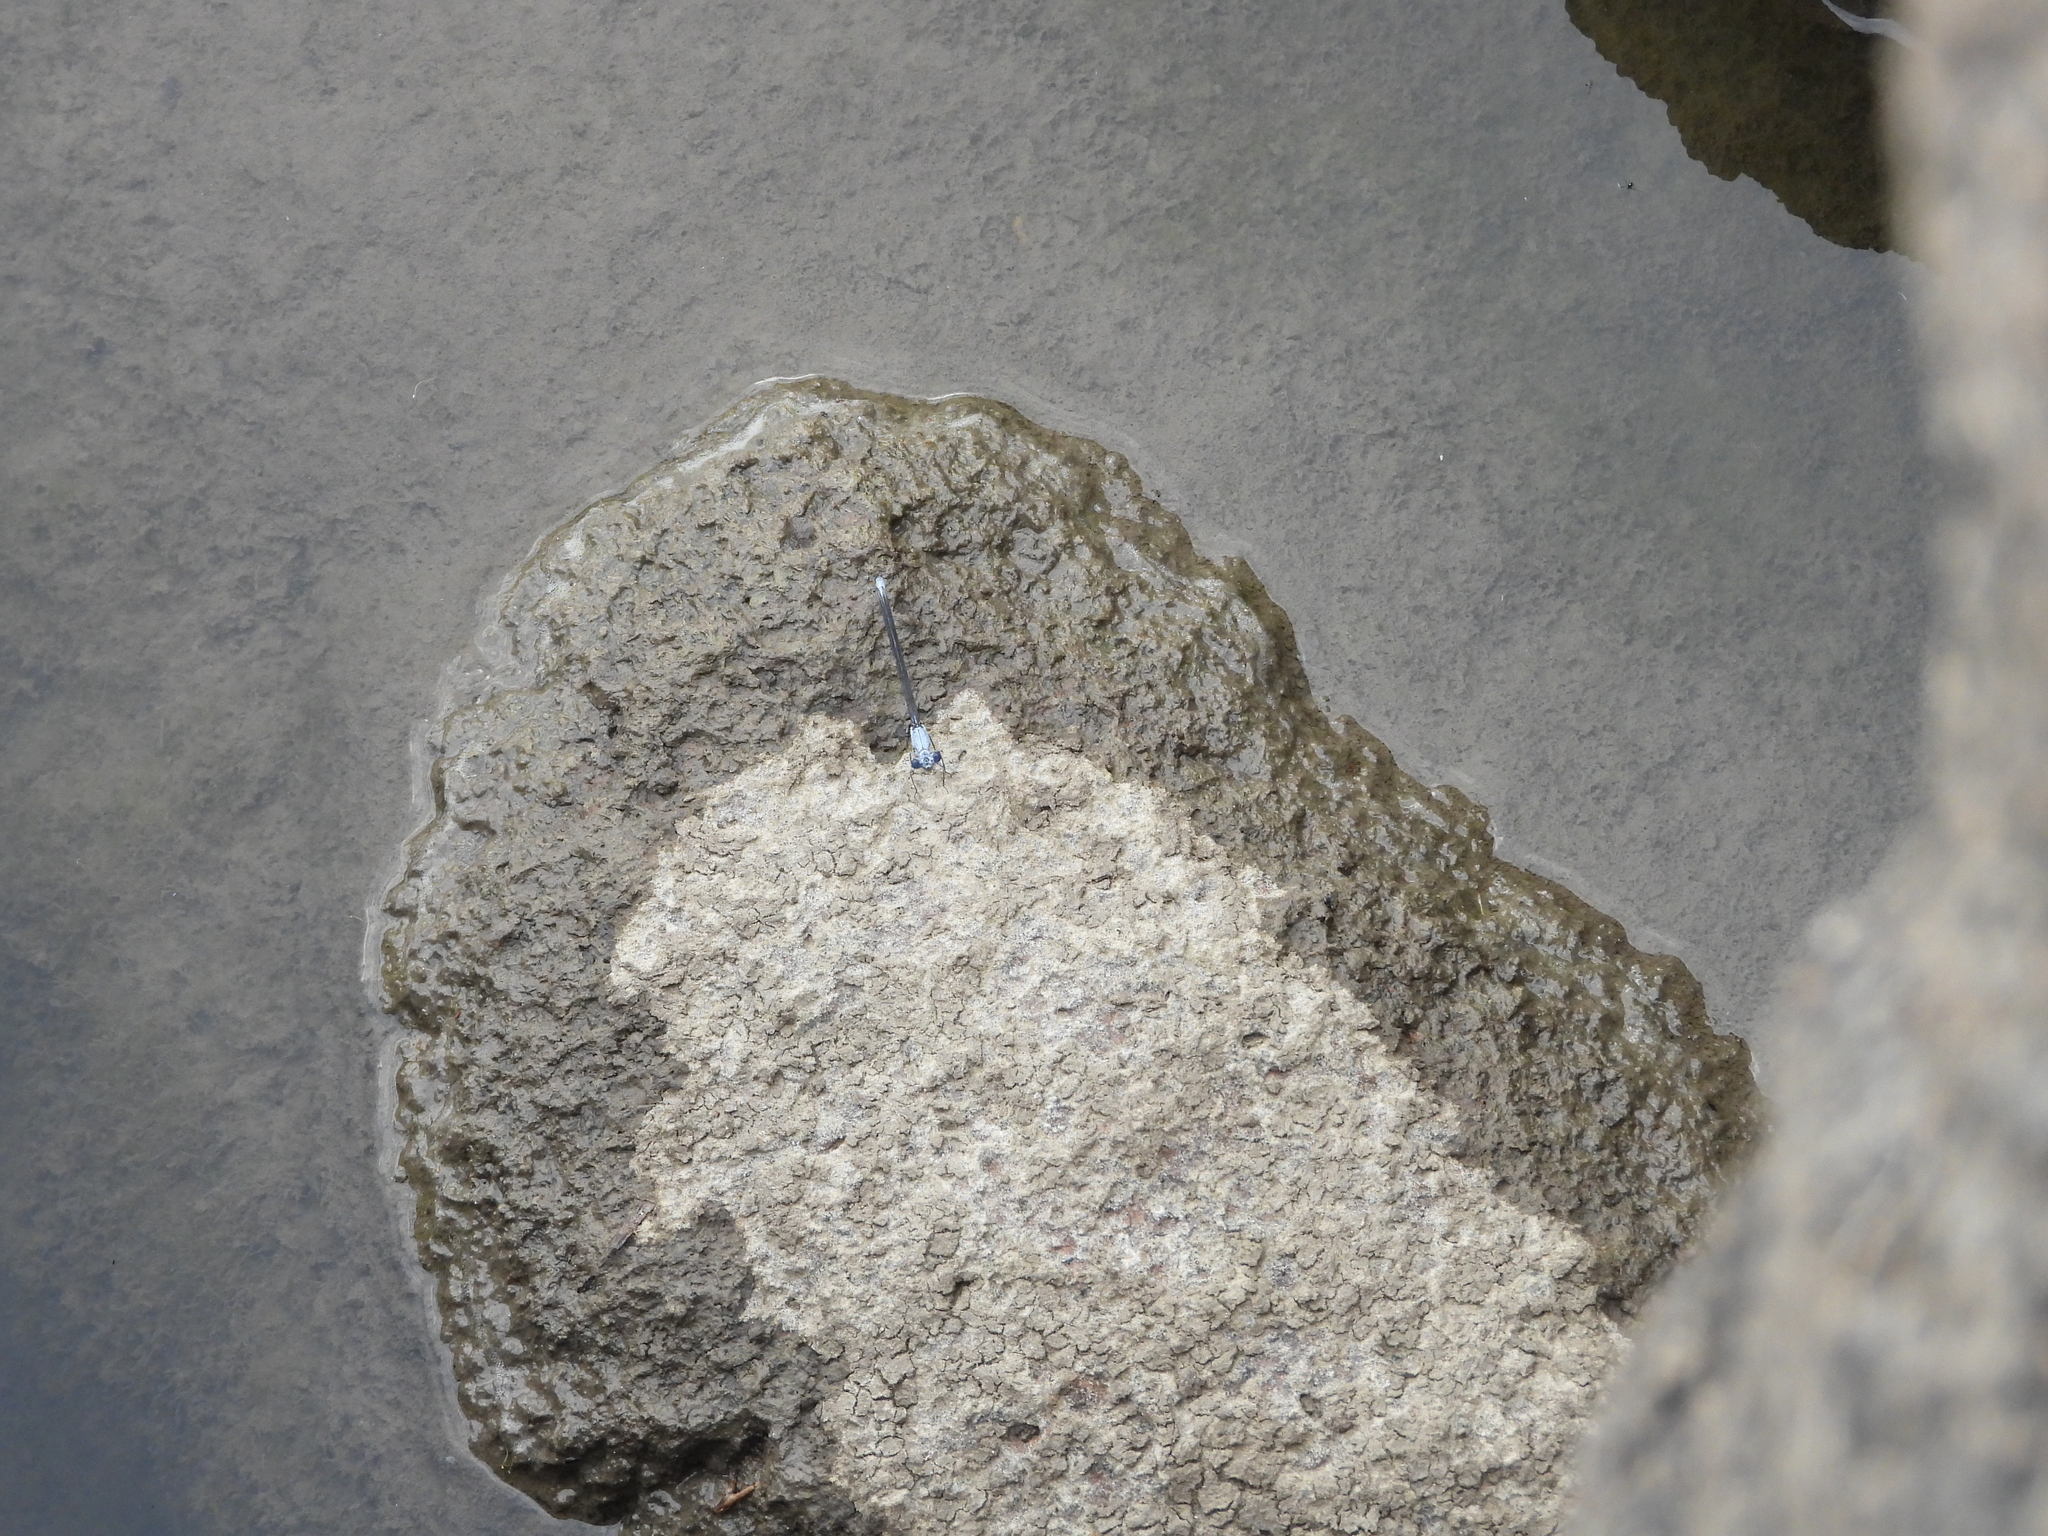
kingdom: Animalia
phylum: Arthropoda
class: Insecta
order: Odonata
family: Platycnemididae
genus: Mesocnemis
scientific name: Mesocnemis singularis
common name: Common riverjack
